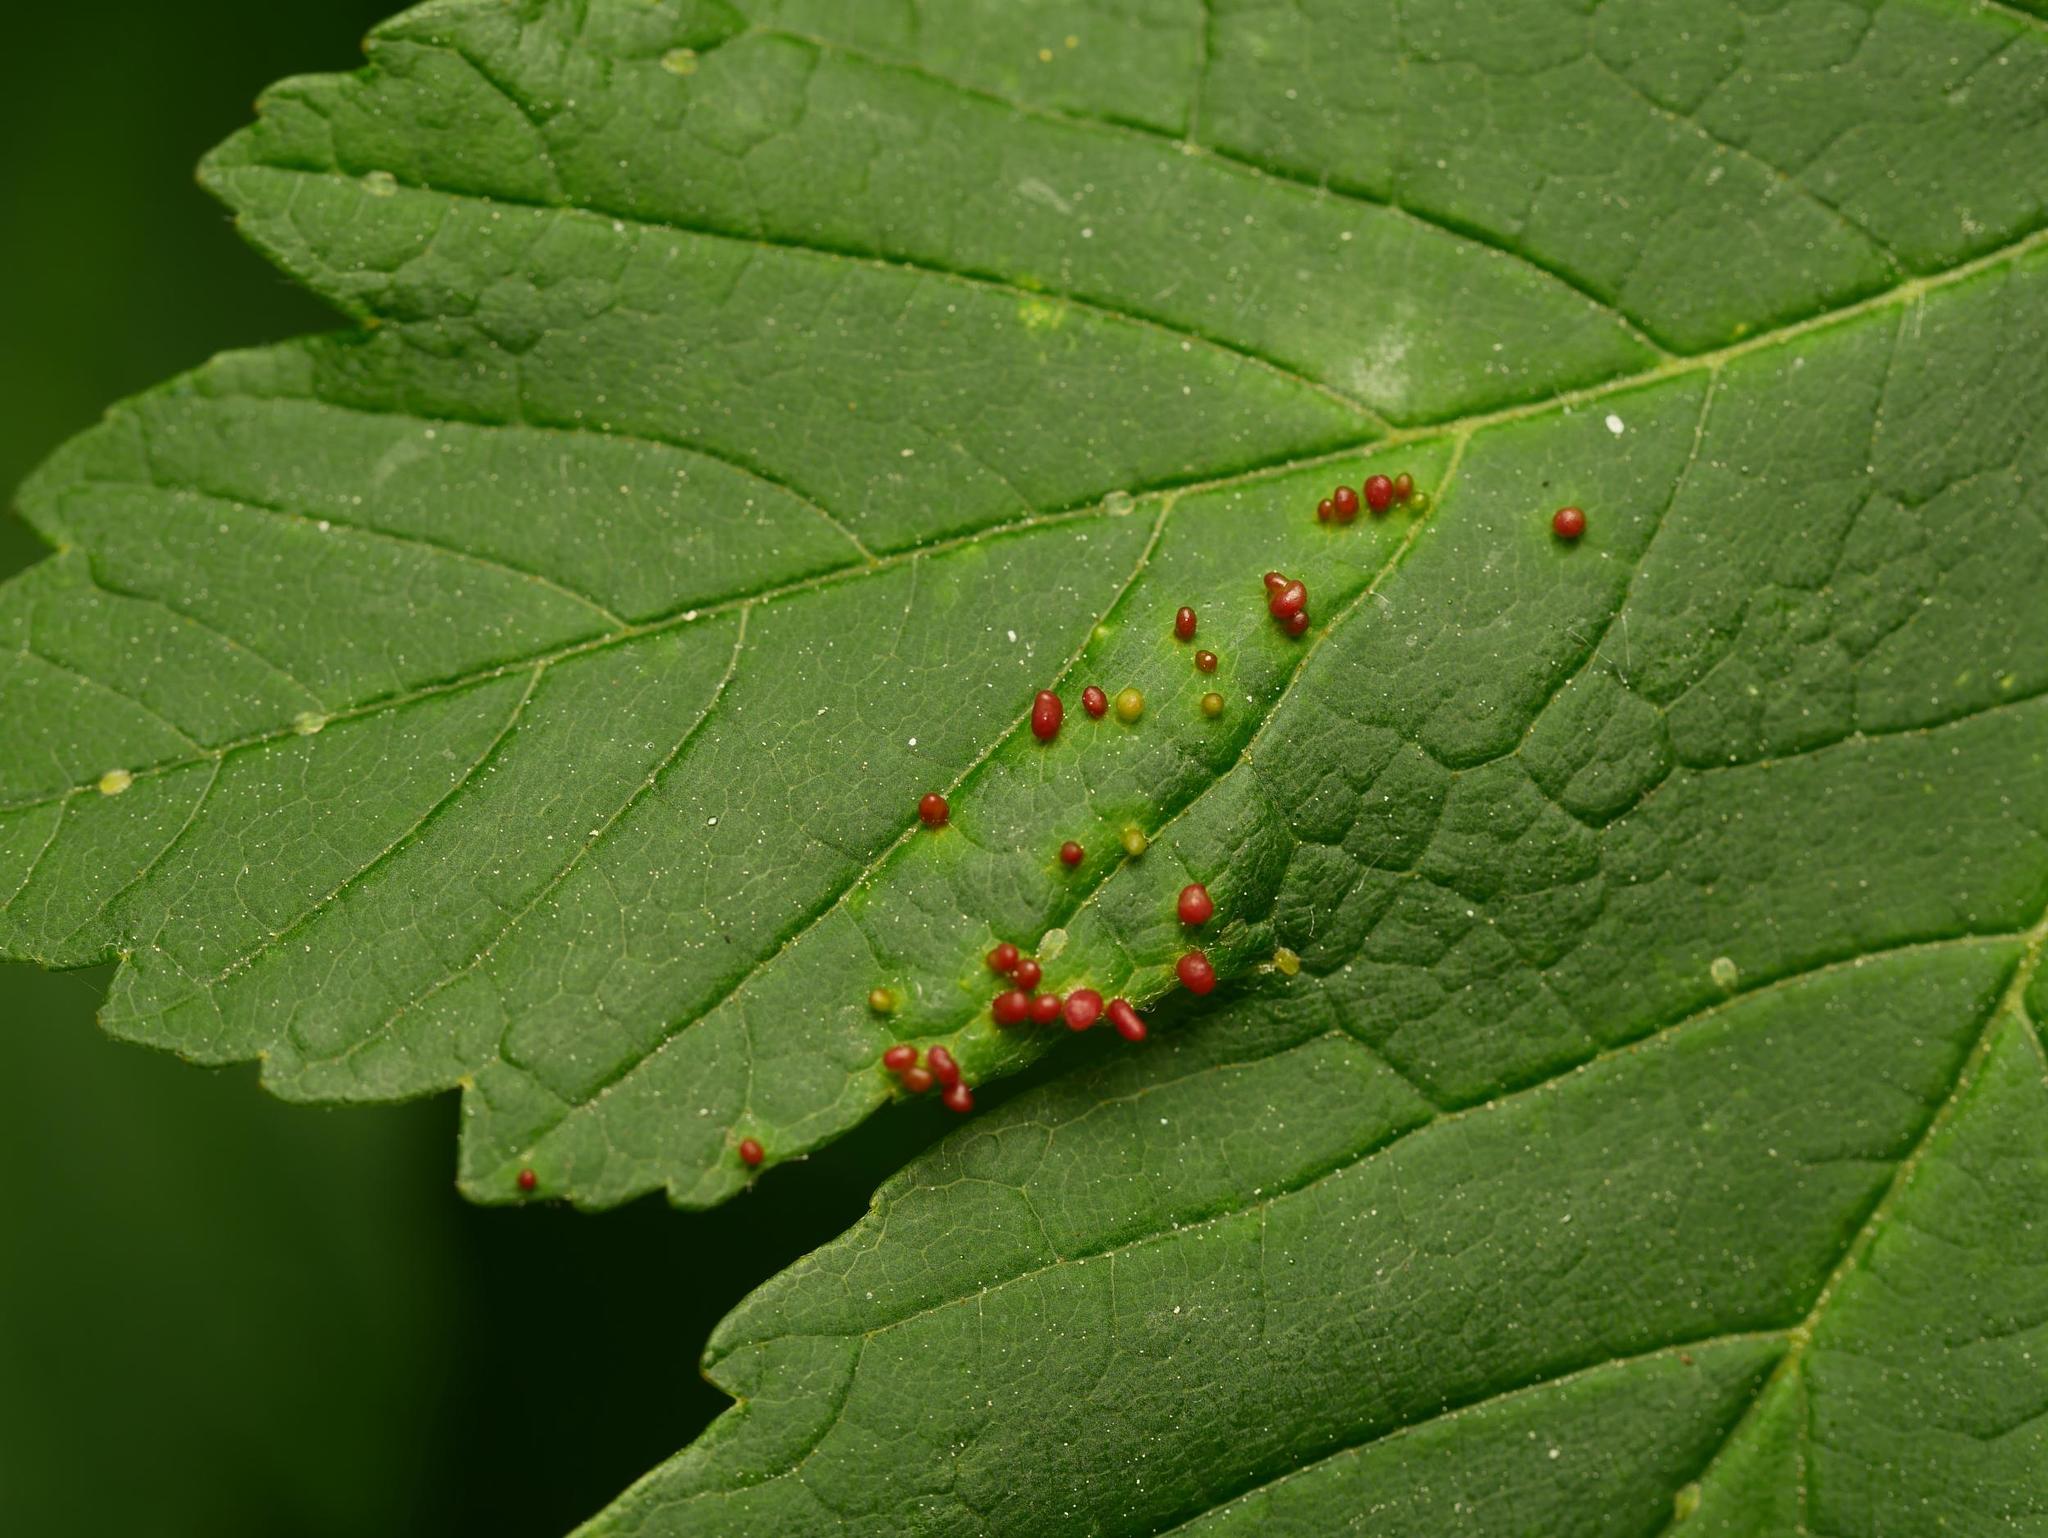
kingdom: Animalia
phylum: Arthropoda
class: Arachnida
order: Trombidiformes
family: Eriophyidae
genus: Aceria
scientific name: Aceria cephaloneus
